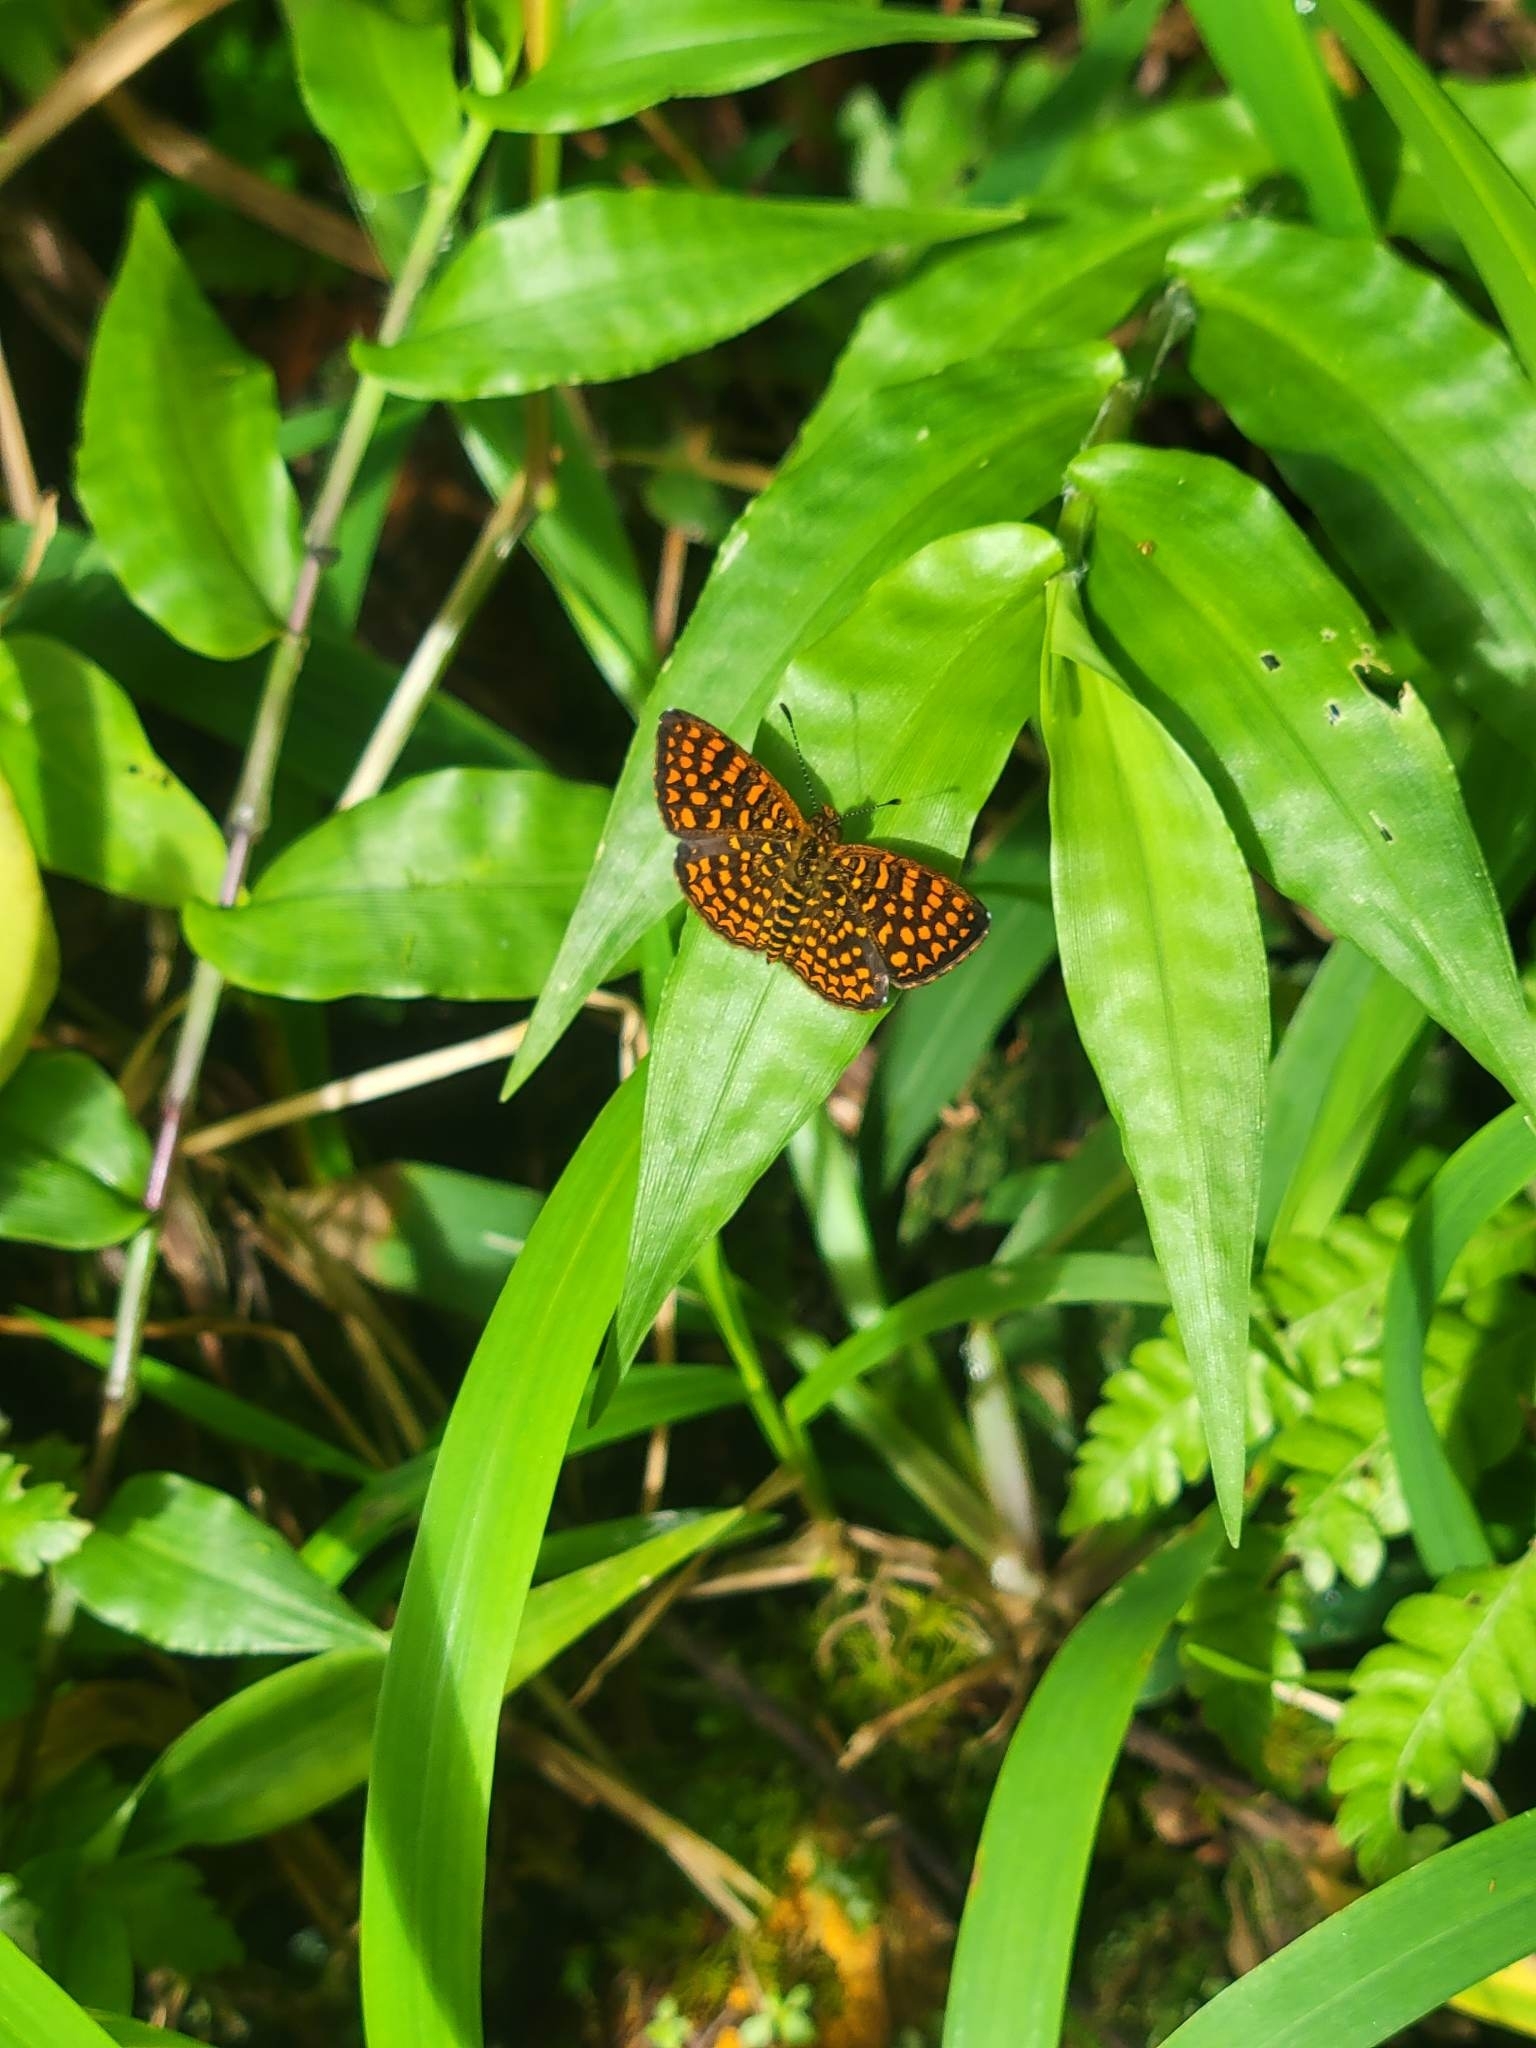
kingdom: Animalia
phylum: Arthropoda
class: Insecta
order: Lepidoptera
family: Nymphalidae
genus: Antillea
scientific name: Antillea pelops
